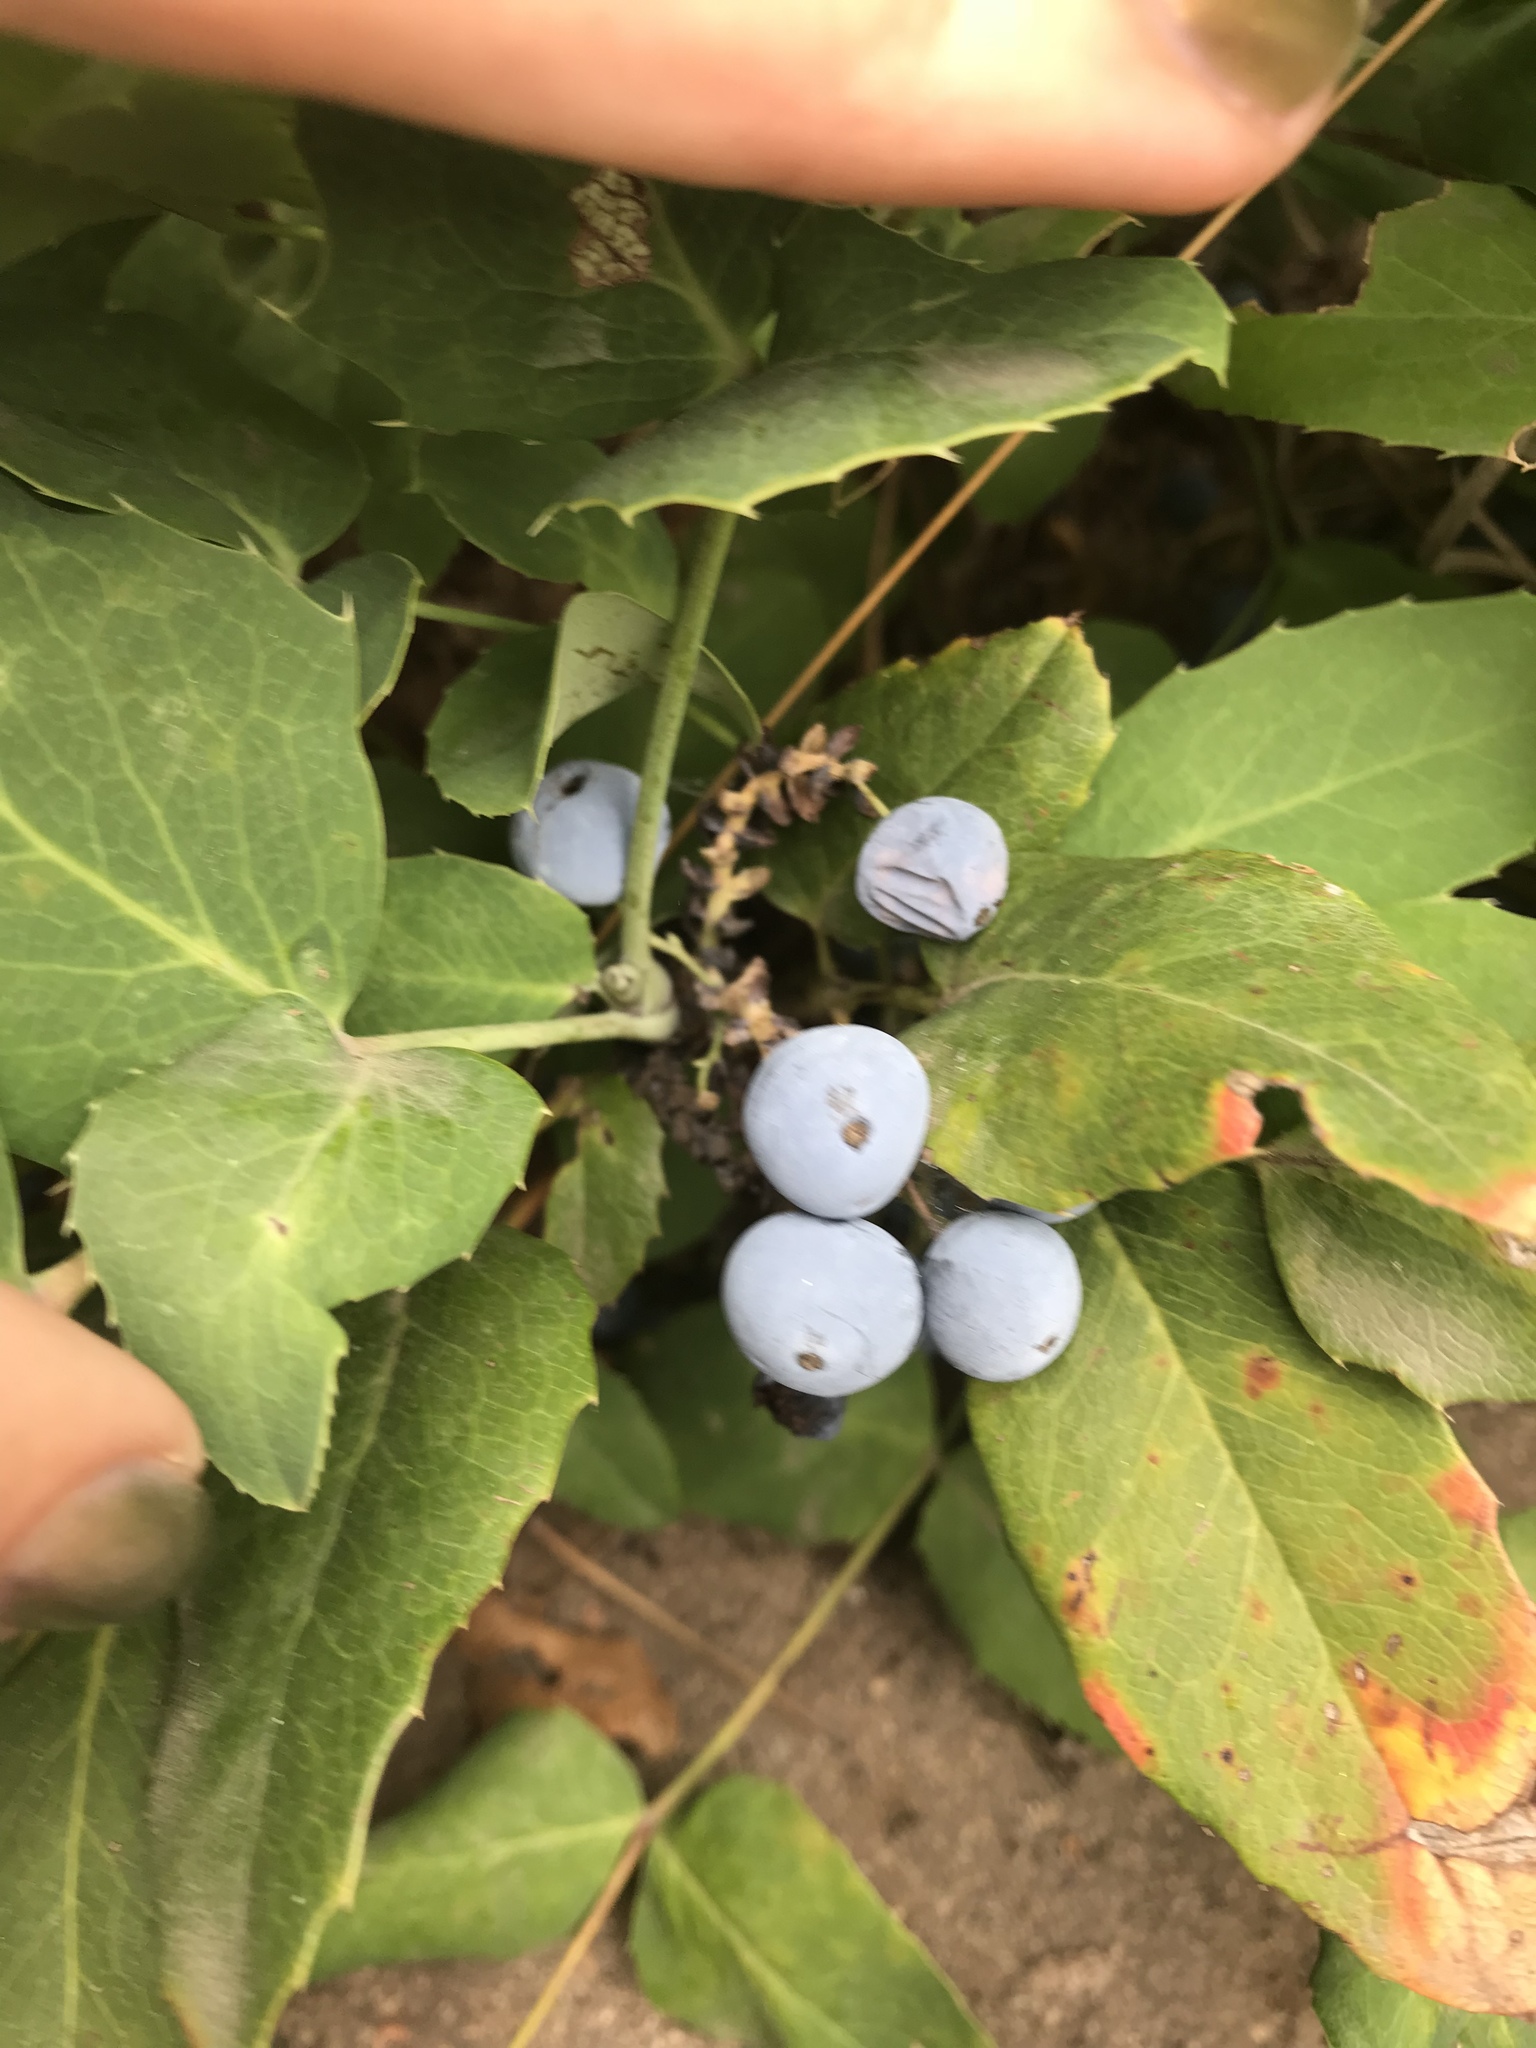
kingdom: Plantae
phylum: Tracheophyta
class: Magnoliopsida
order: Ranunculales
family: Berberidaceae
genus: Mahonia
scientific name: Mahonia repens
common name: Creeping oregon-grape
